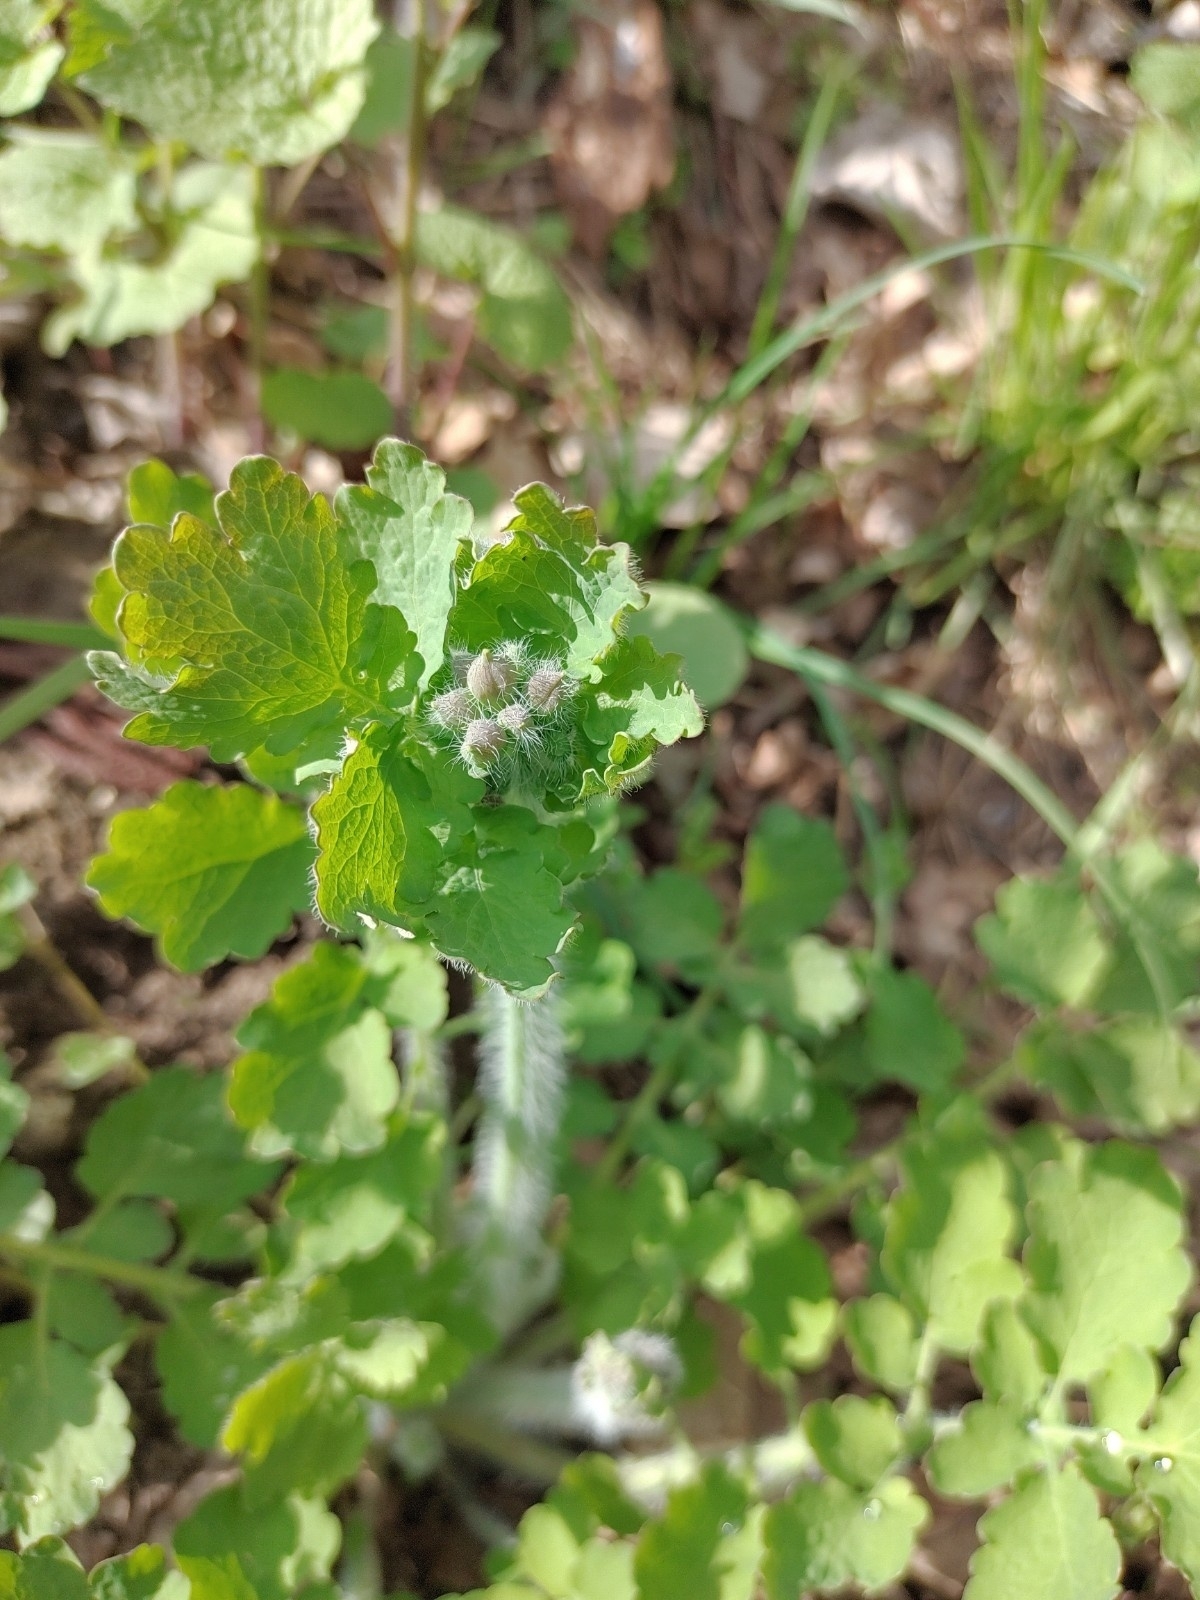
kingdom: Plantae
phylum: Tracheophyta
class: Magnoliopsida
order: Ranunculales
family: Papaveraceae
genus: Chelidonium
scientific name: Chelidonium majus
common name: Greater celandine
